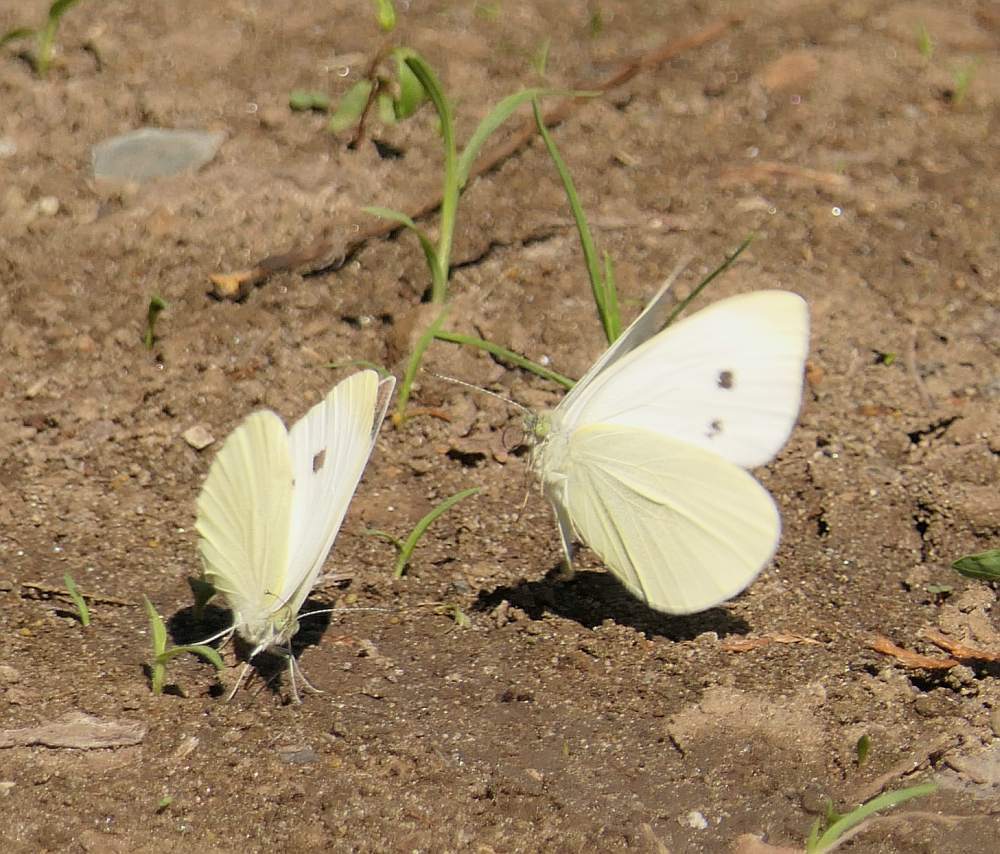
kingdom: Animalia
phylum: Arthropoda
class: Insecta
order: Lepidoptera
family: Pieridae
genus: Pieris
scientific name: Pieris rapae
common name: Small white
